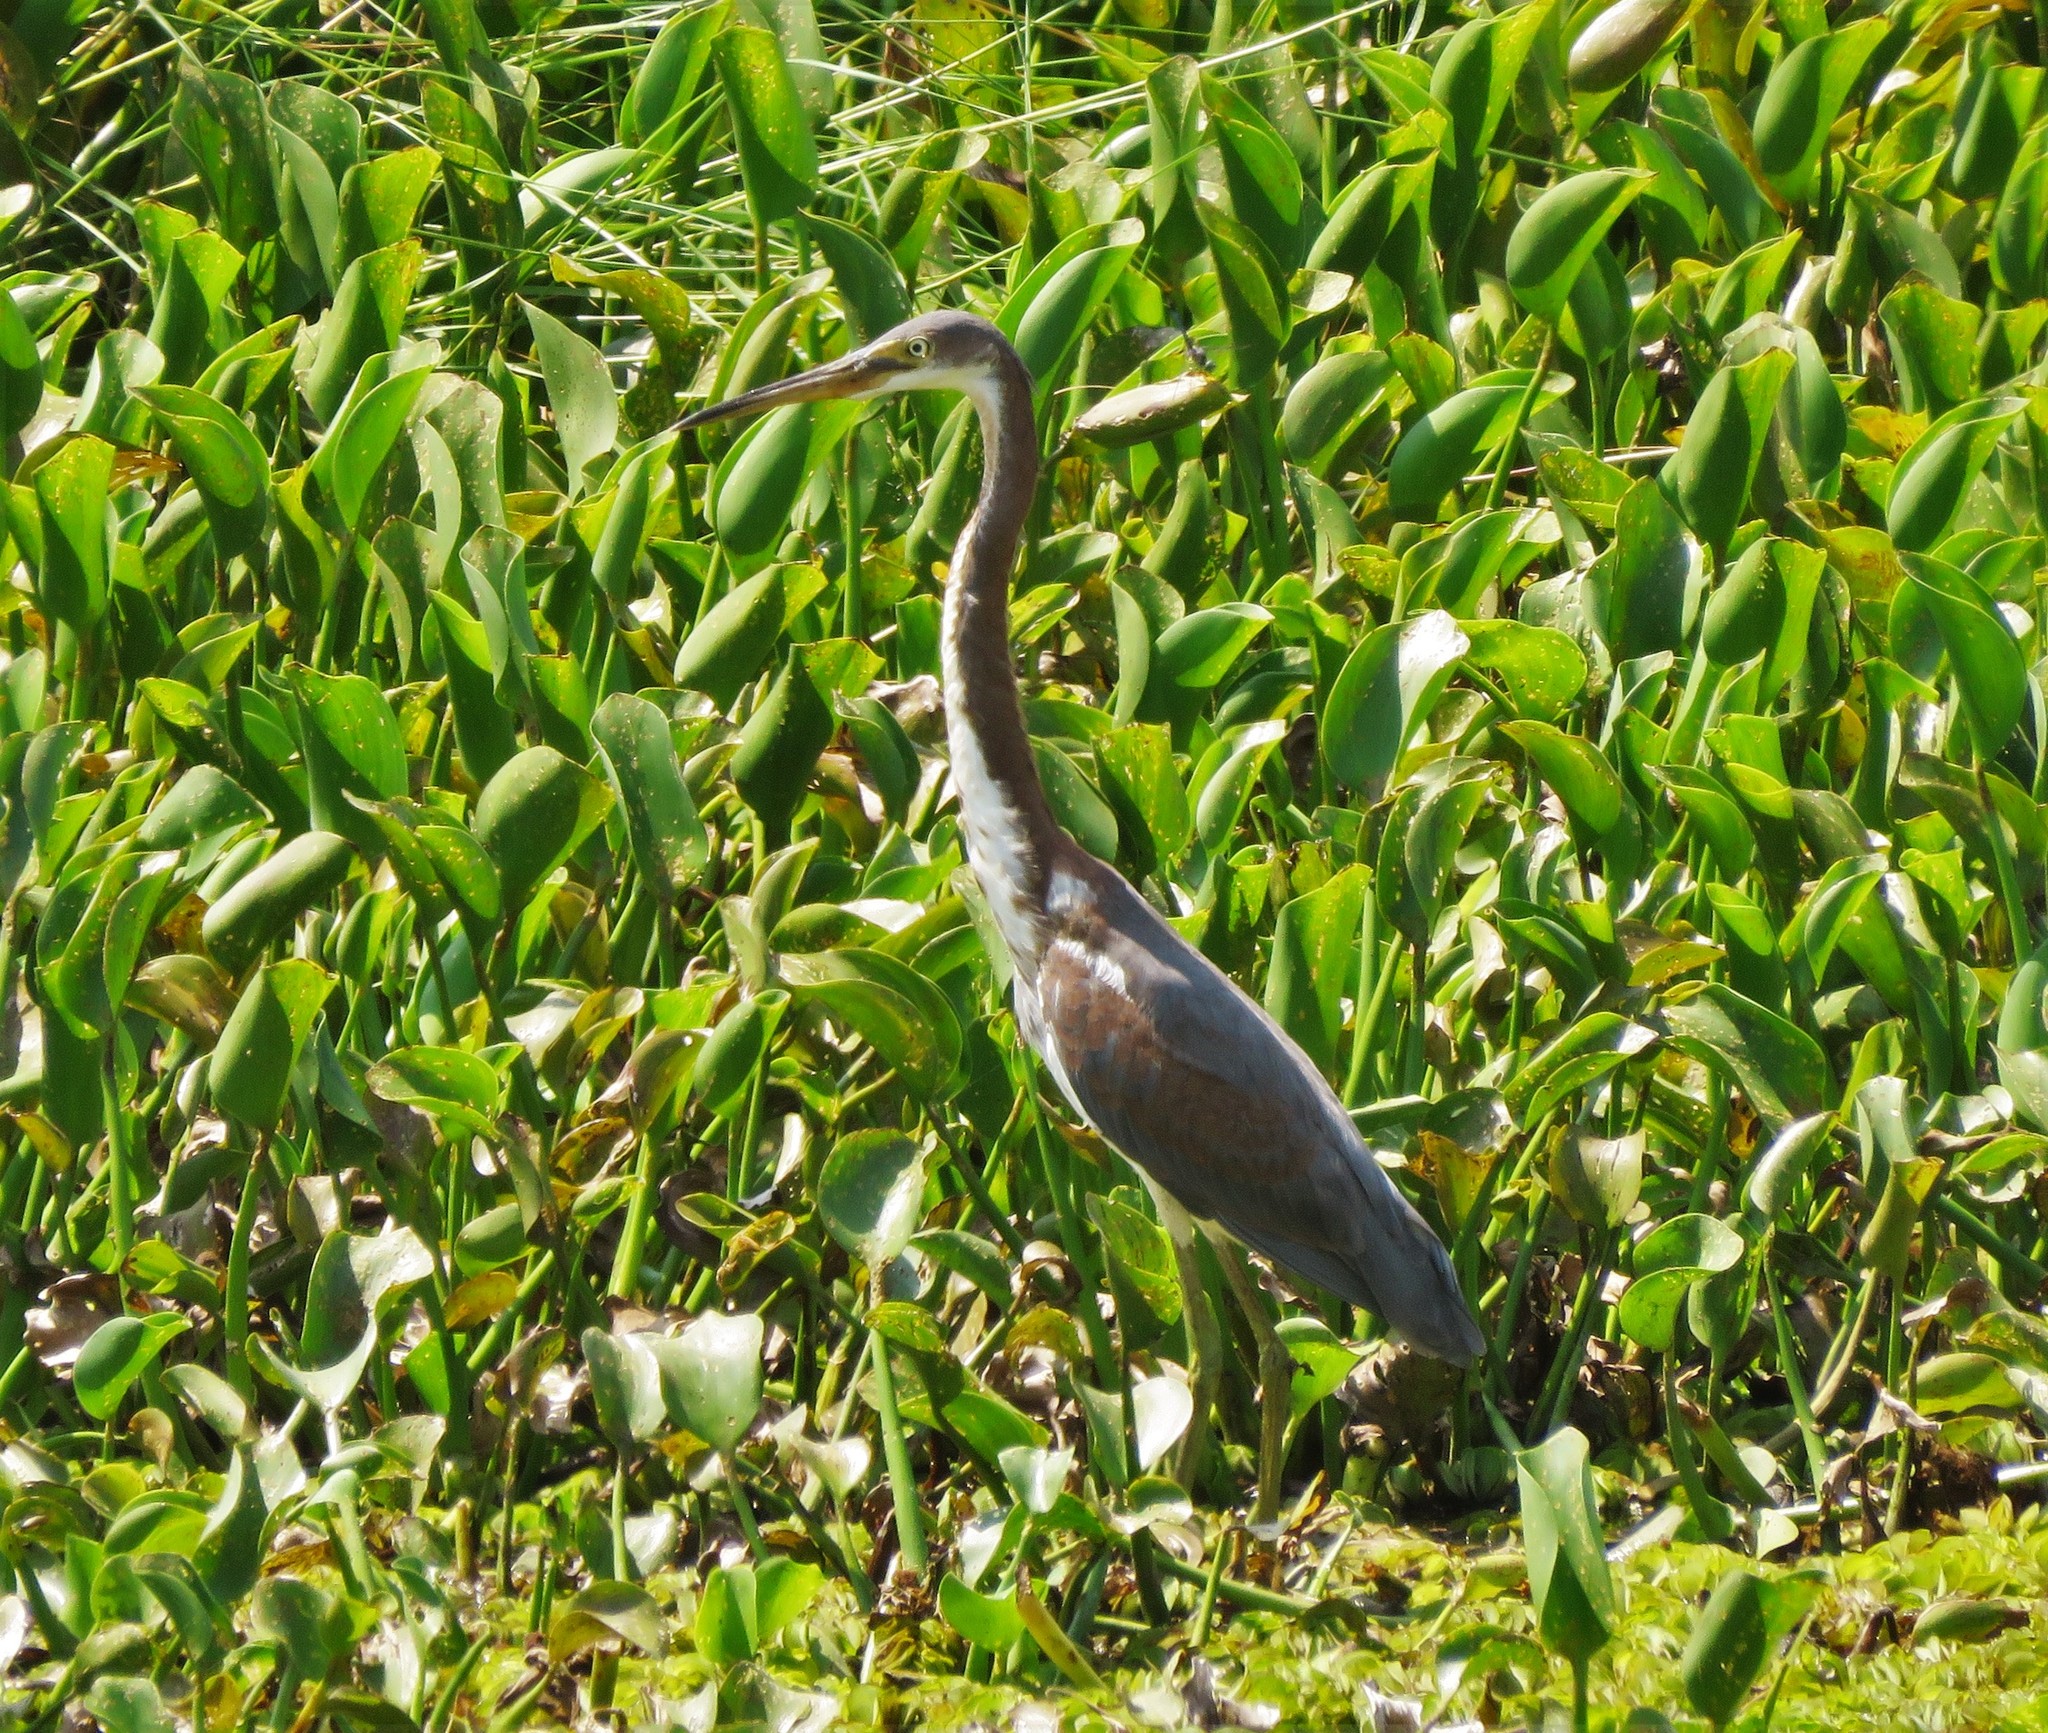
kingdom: Animalia
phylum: Chordata
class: Aves
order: Pelecaniformes
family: Ardeidae
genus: Egretta
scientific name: Egretta tricolor
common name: Tricolored heron
